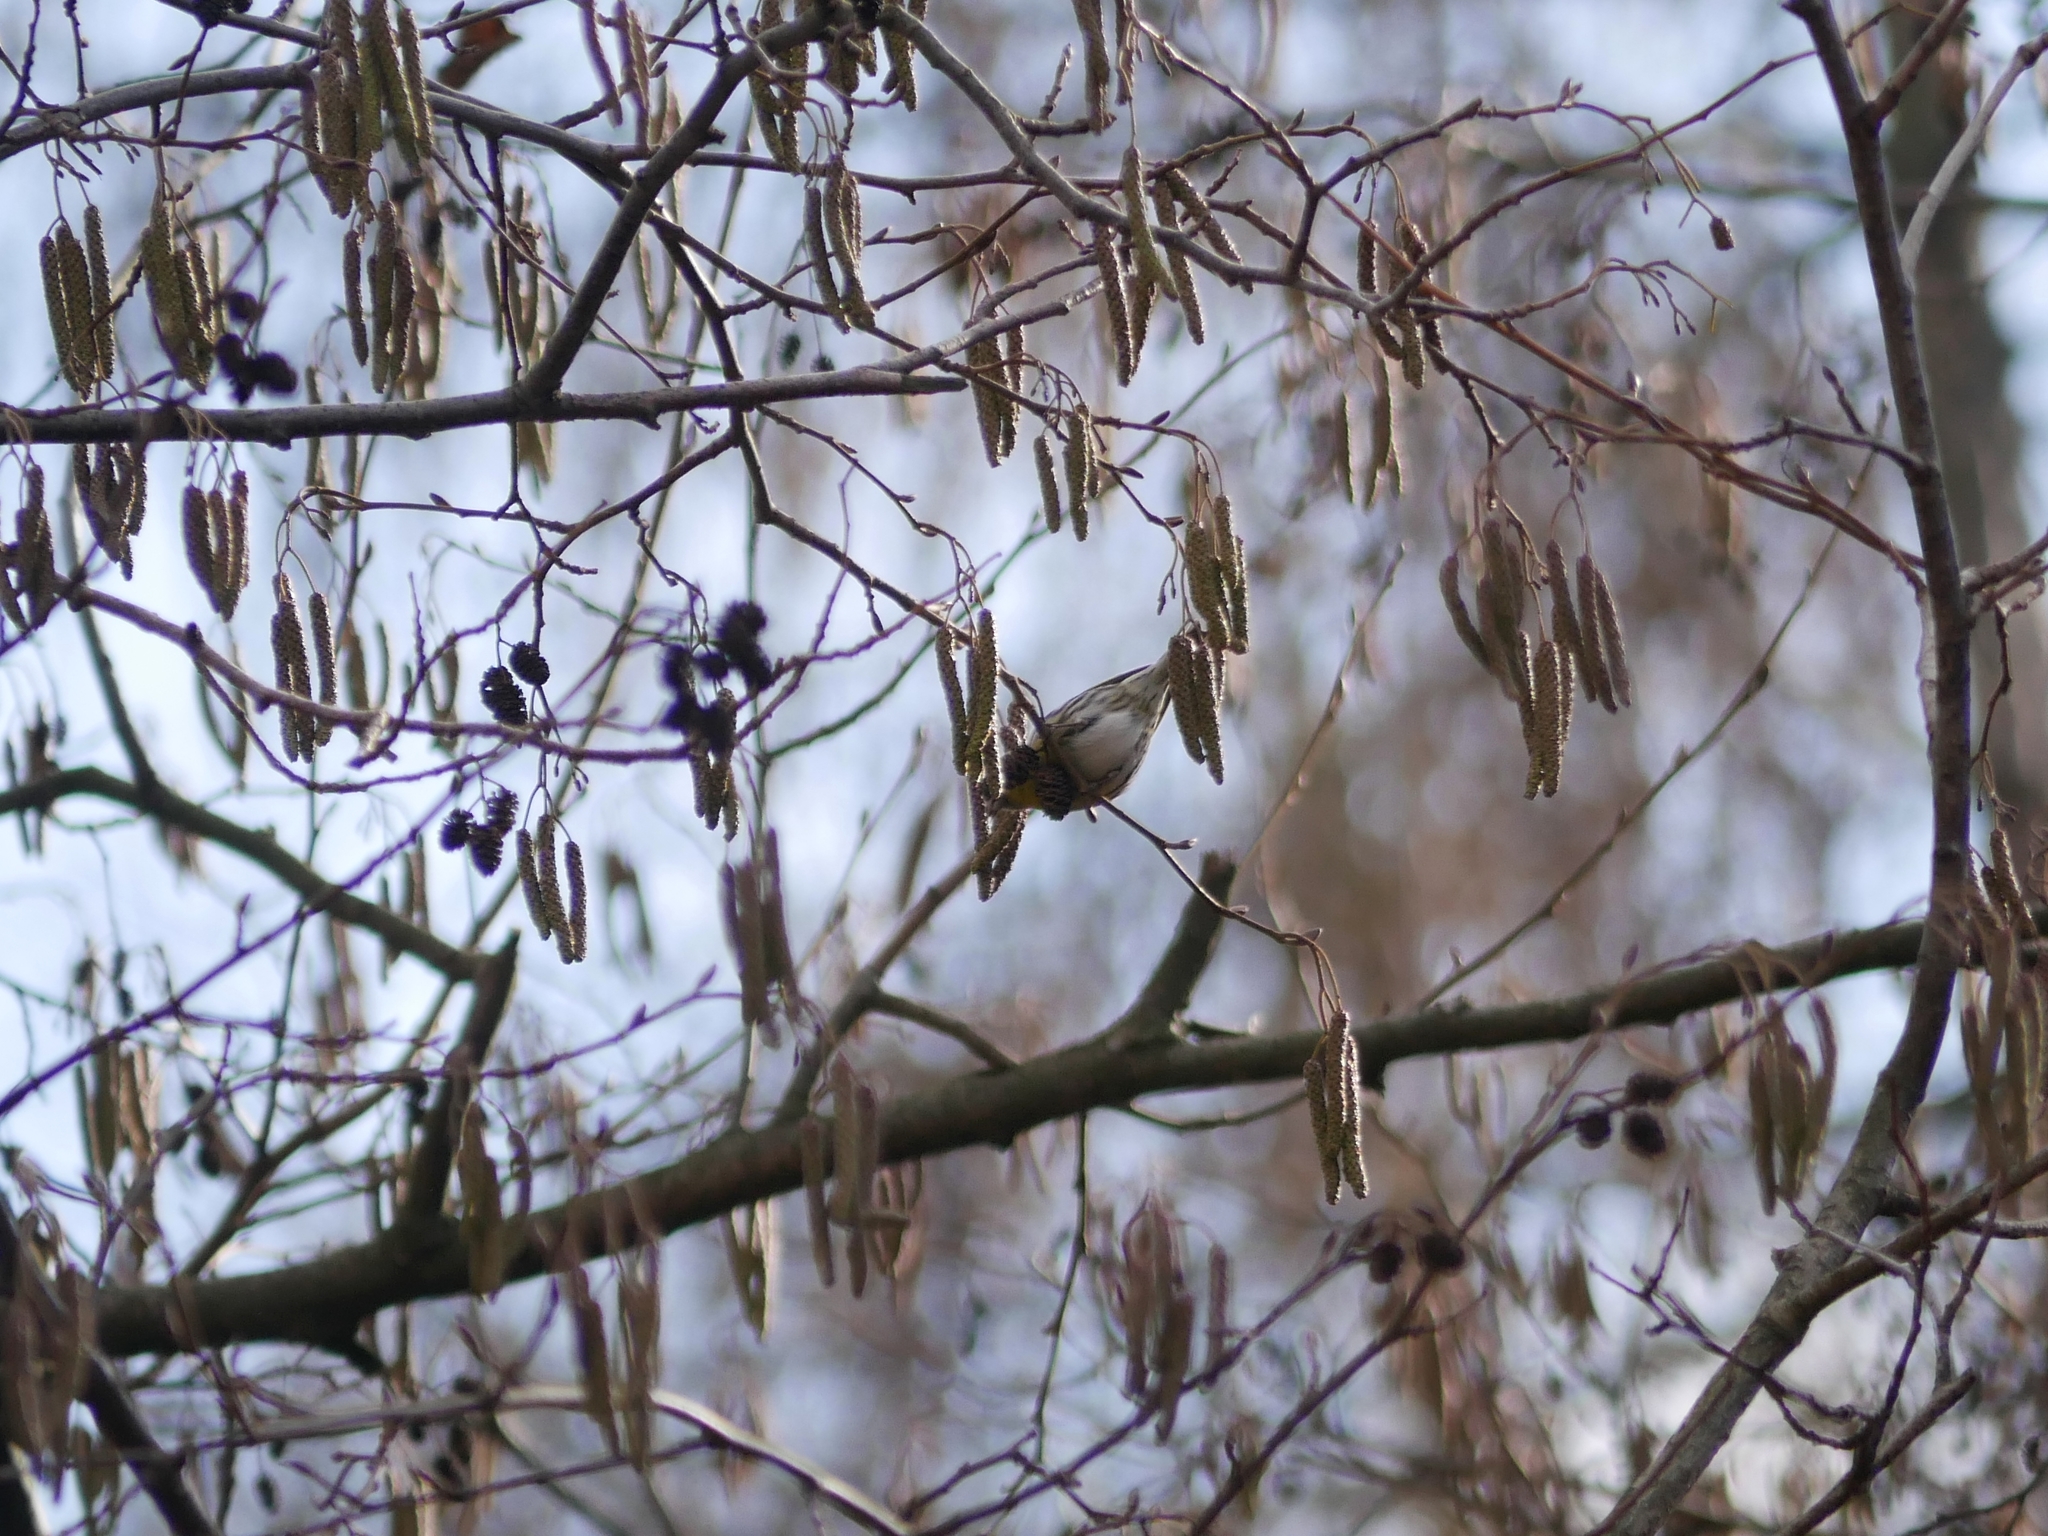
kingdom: Animalia
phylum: Chordata
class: Aves
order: Passeriformes
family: Fringillidae
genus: Spinus
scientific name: Spinus spinus
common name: Eurasian siskin
